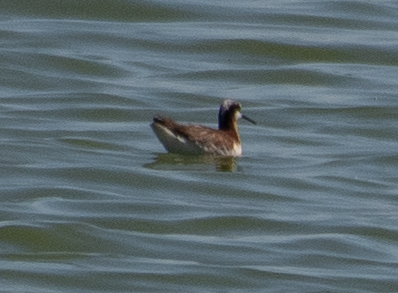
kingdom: Animalia
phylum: Chordata
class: Aves
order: Charadriiformes
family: Scolopacidae
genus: Phalaropus
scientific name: Phalaropus tricolor
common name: Wilson's phalarope
